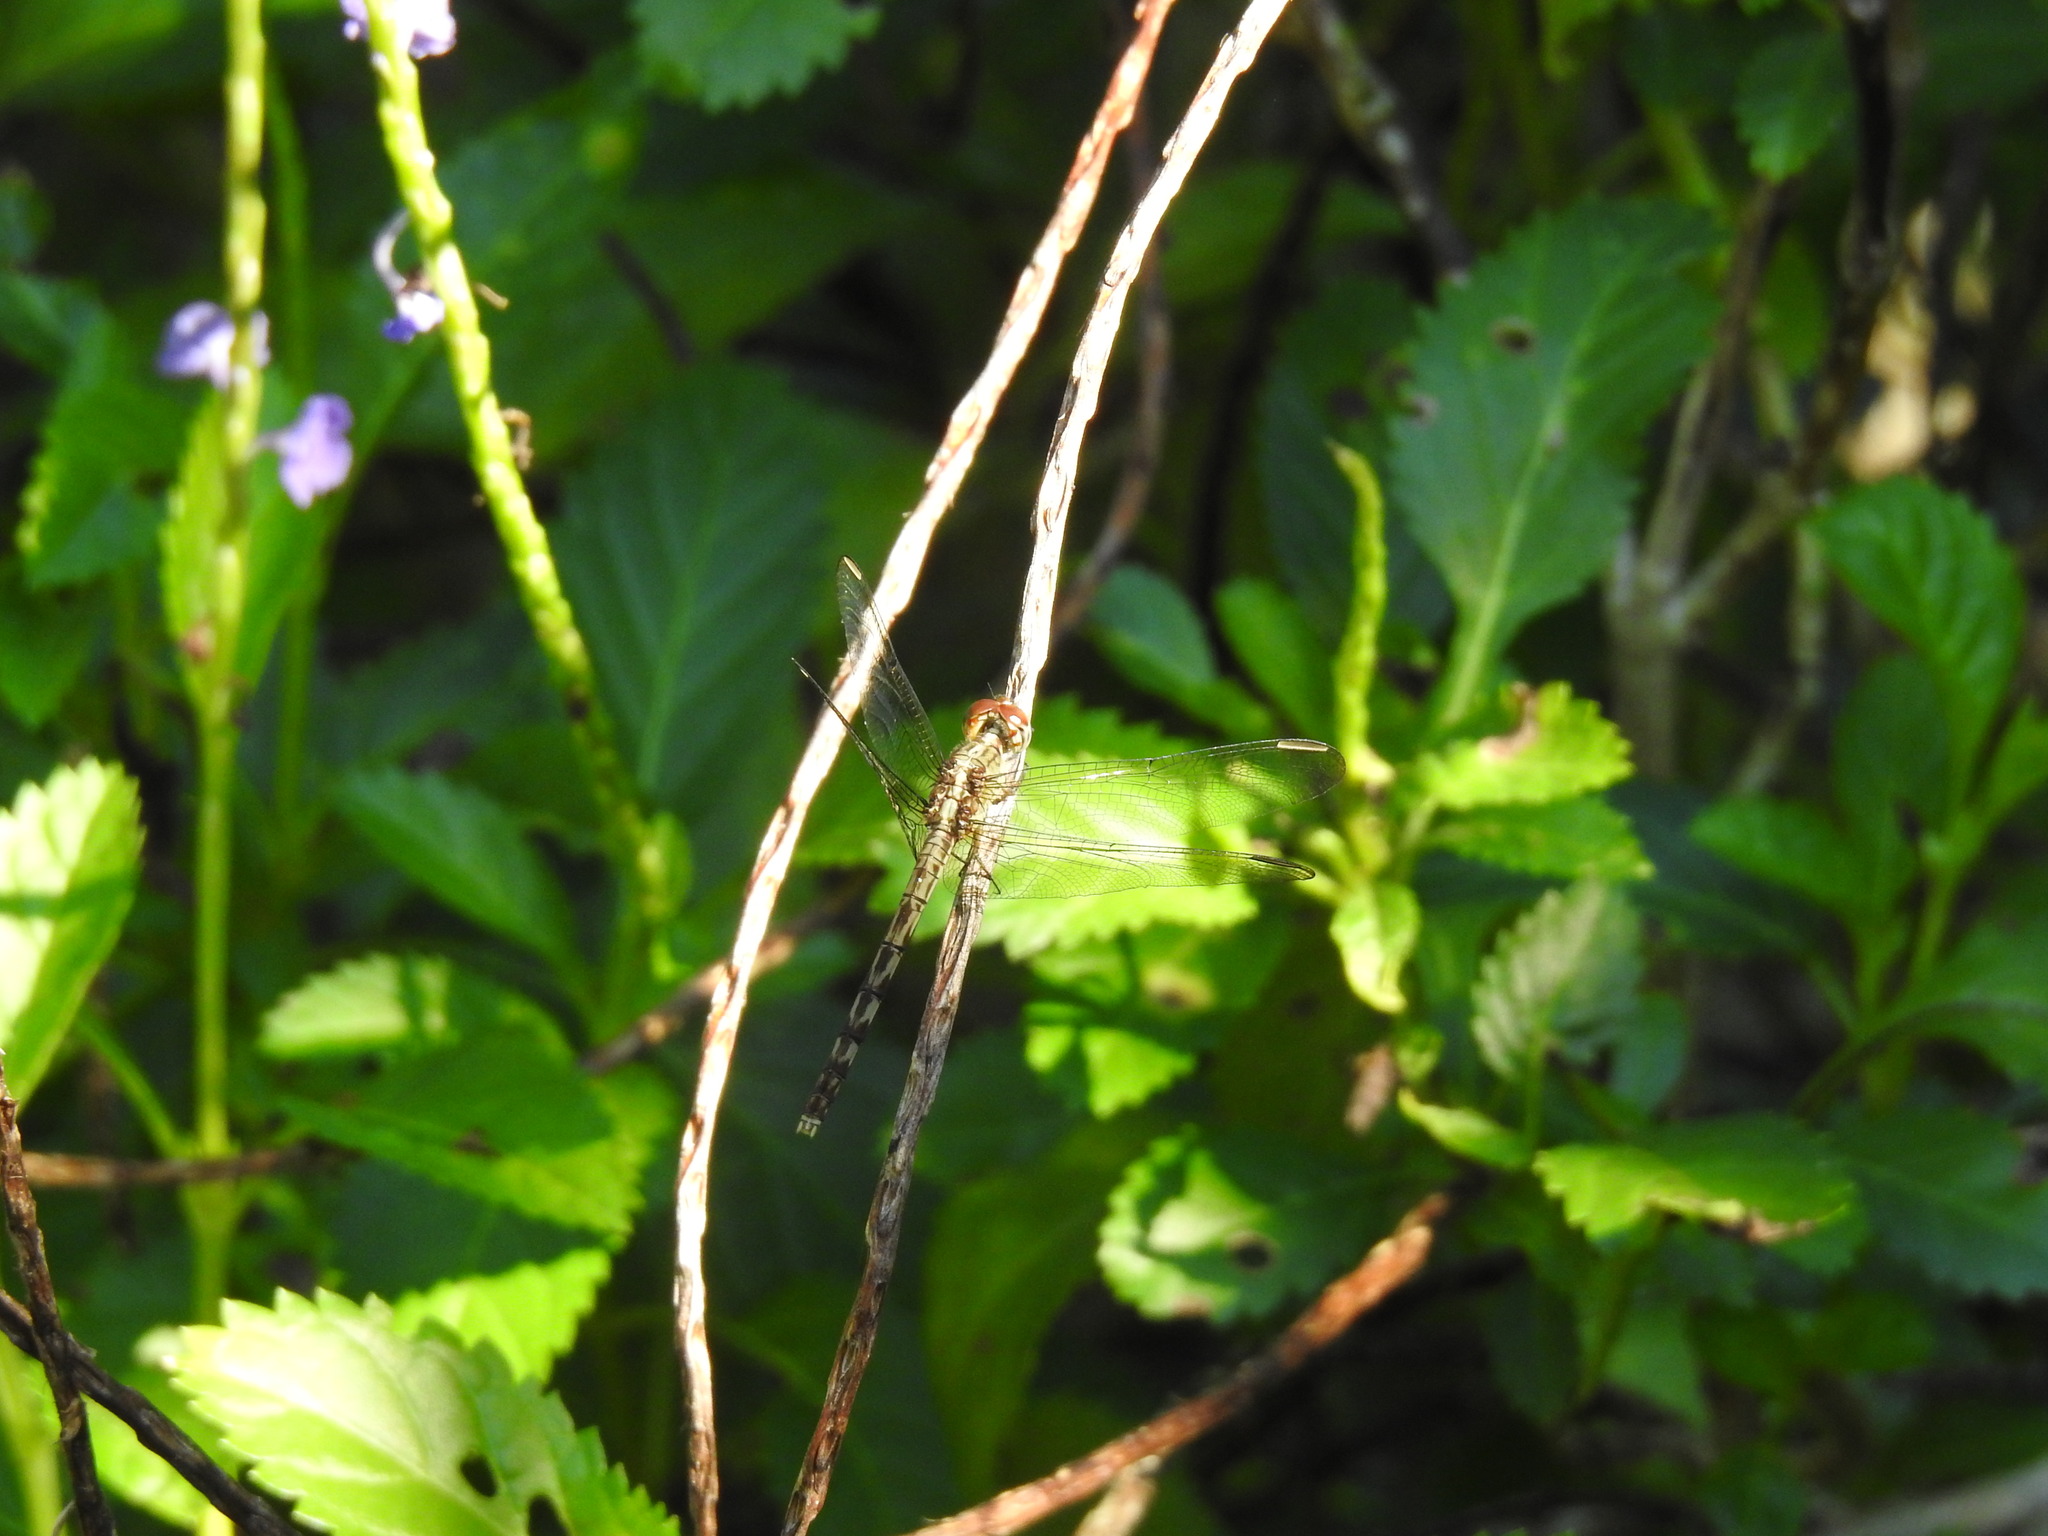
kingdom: Animalia
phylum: Arthropoda
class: Insecta
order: Odonata
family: Libellulidae
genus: Erythrodiplax
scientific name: Erythrodiplax umbrata
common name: Band-winged dragonlet
